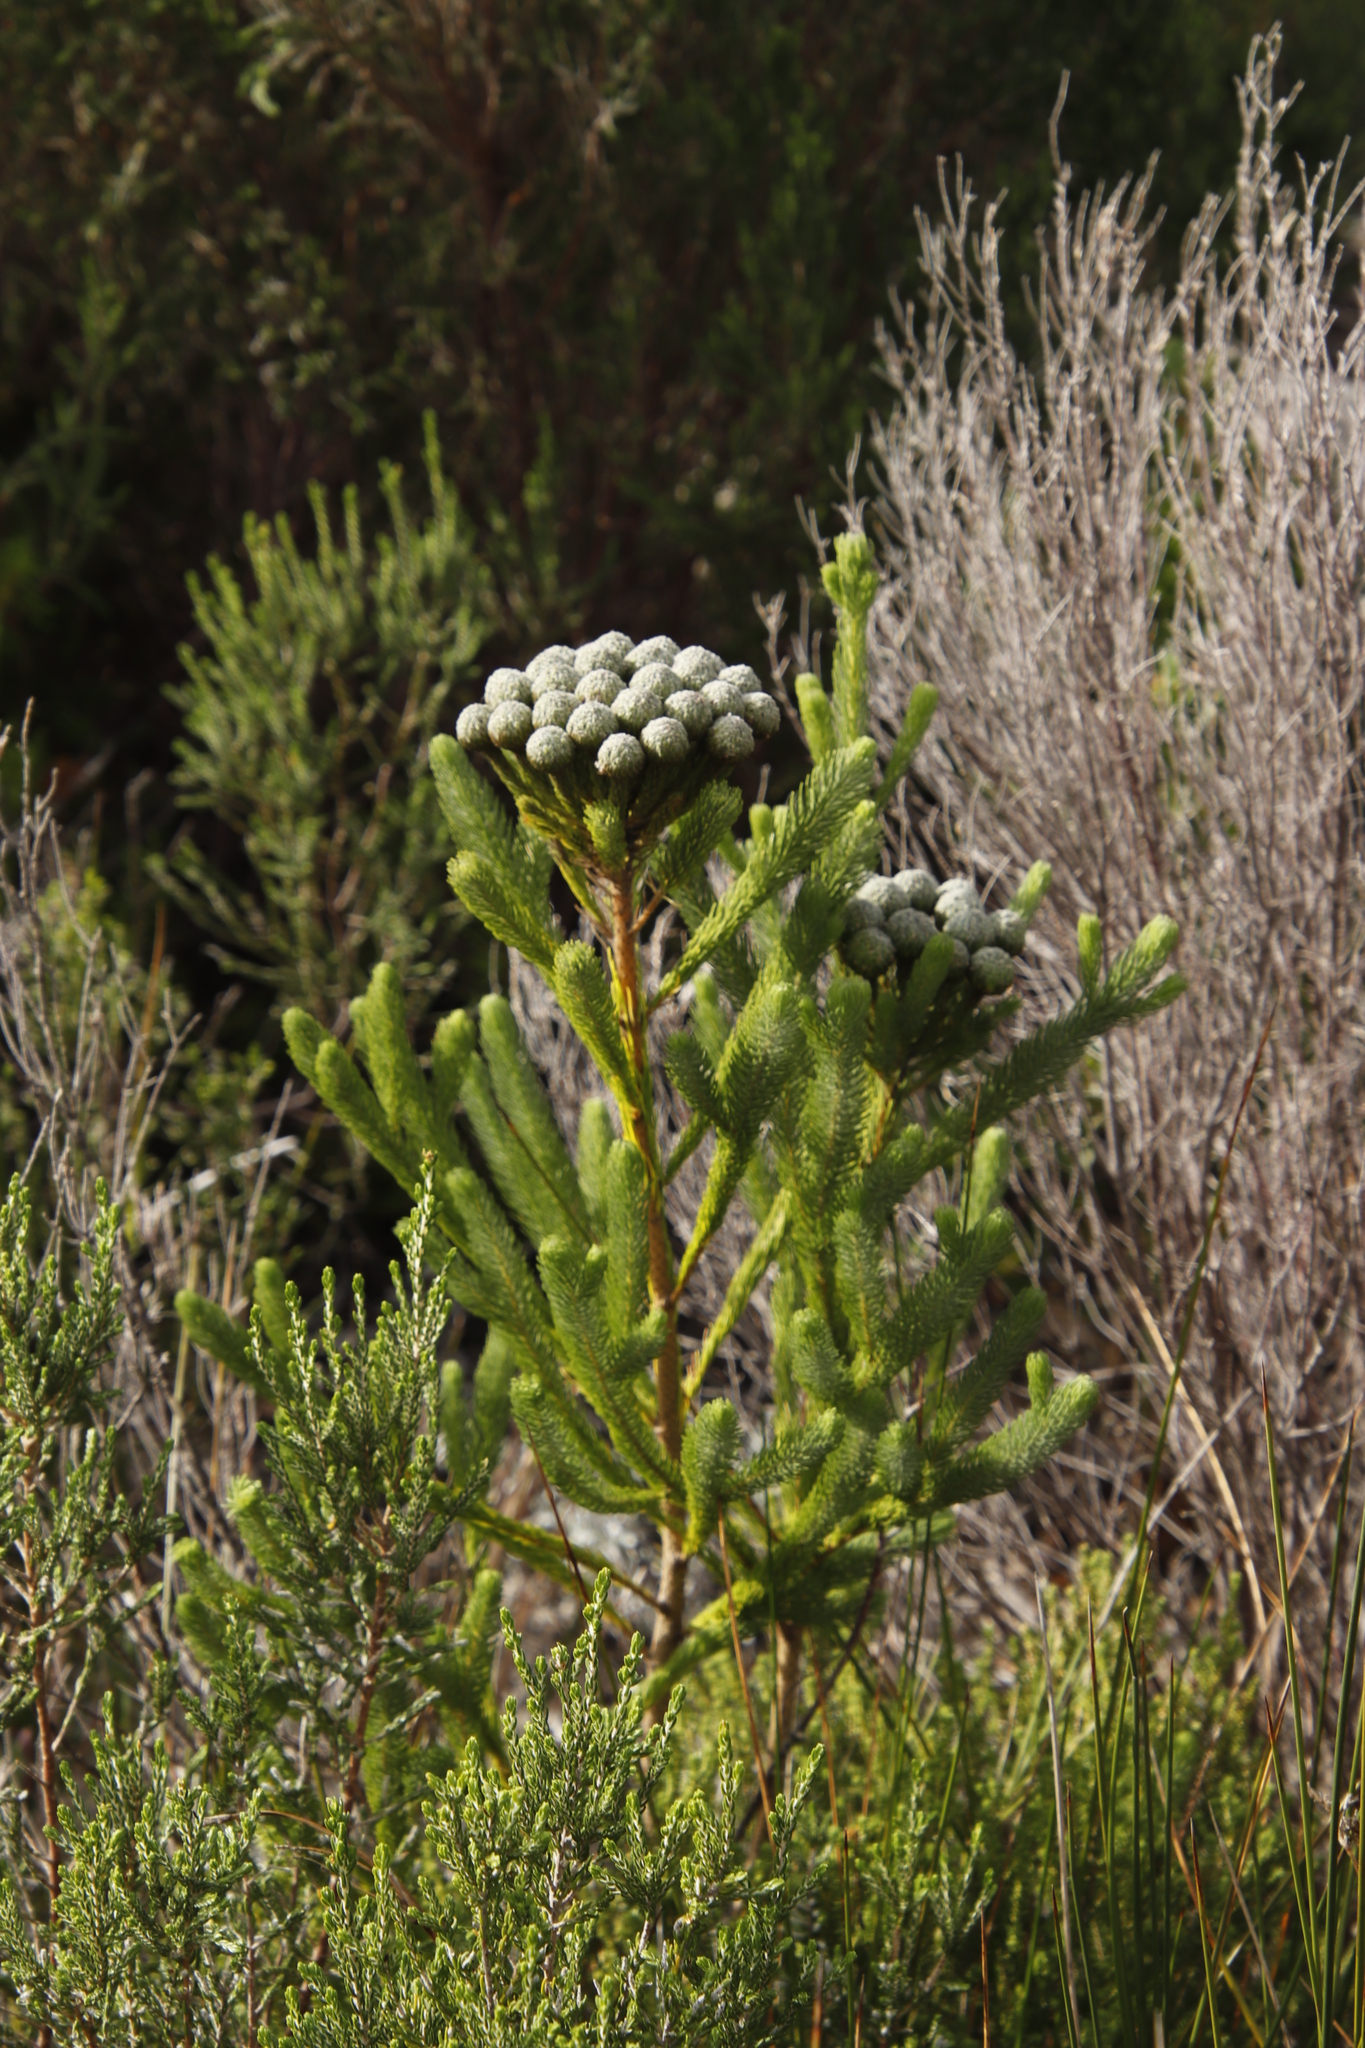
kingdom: Plantae
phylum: Tracheophyta
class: Magnoliopsida
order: Bruniales
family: Bruniaceae
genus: Berzelia
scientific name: Berzelia albiflora
